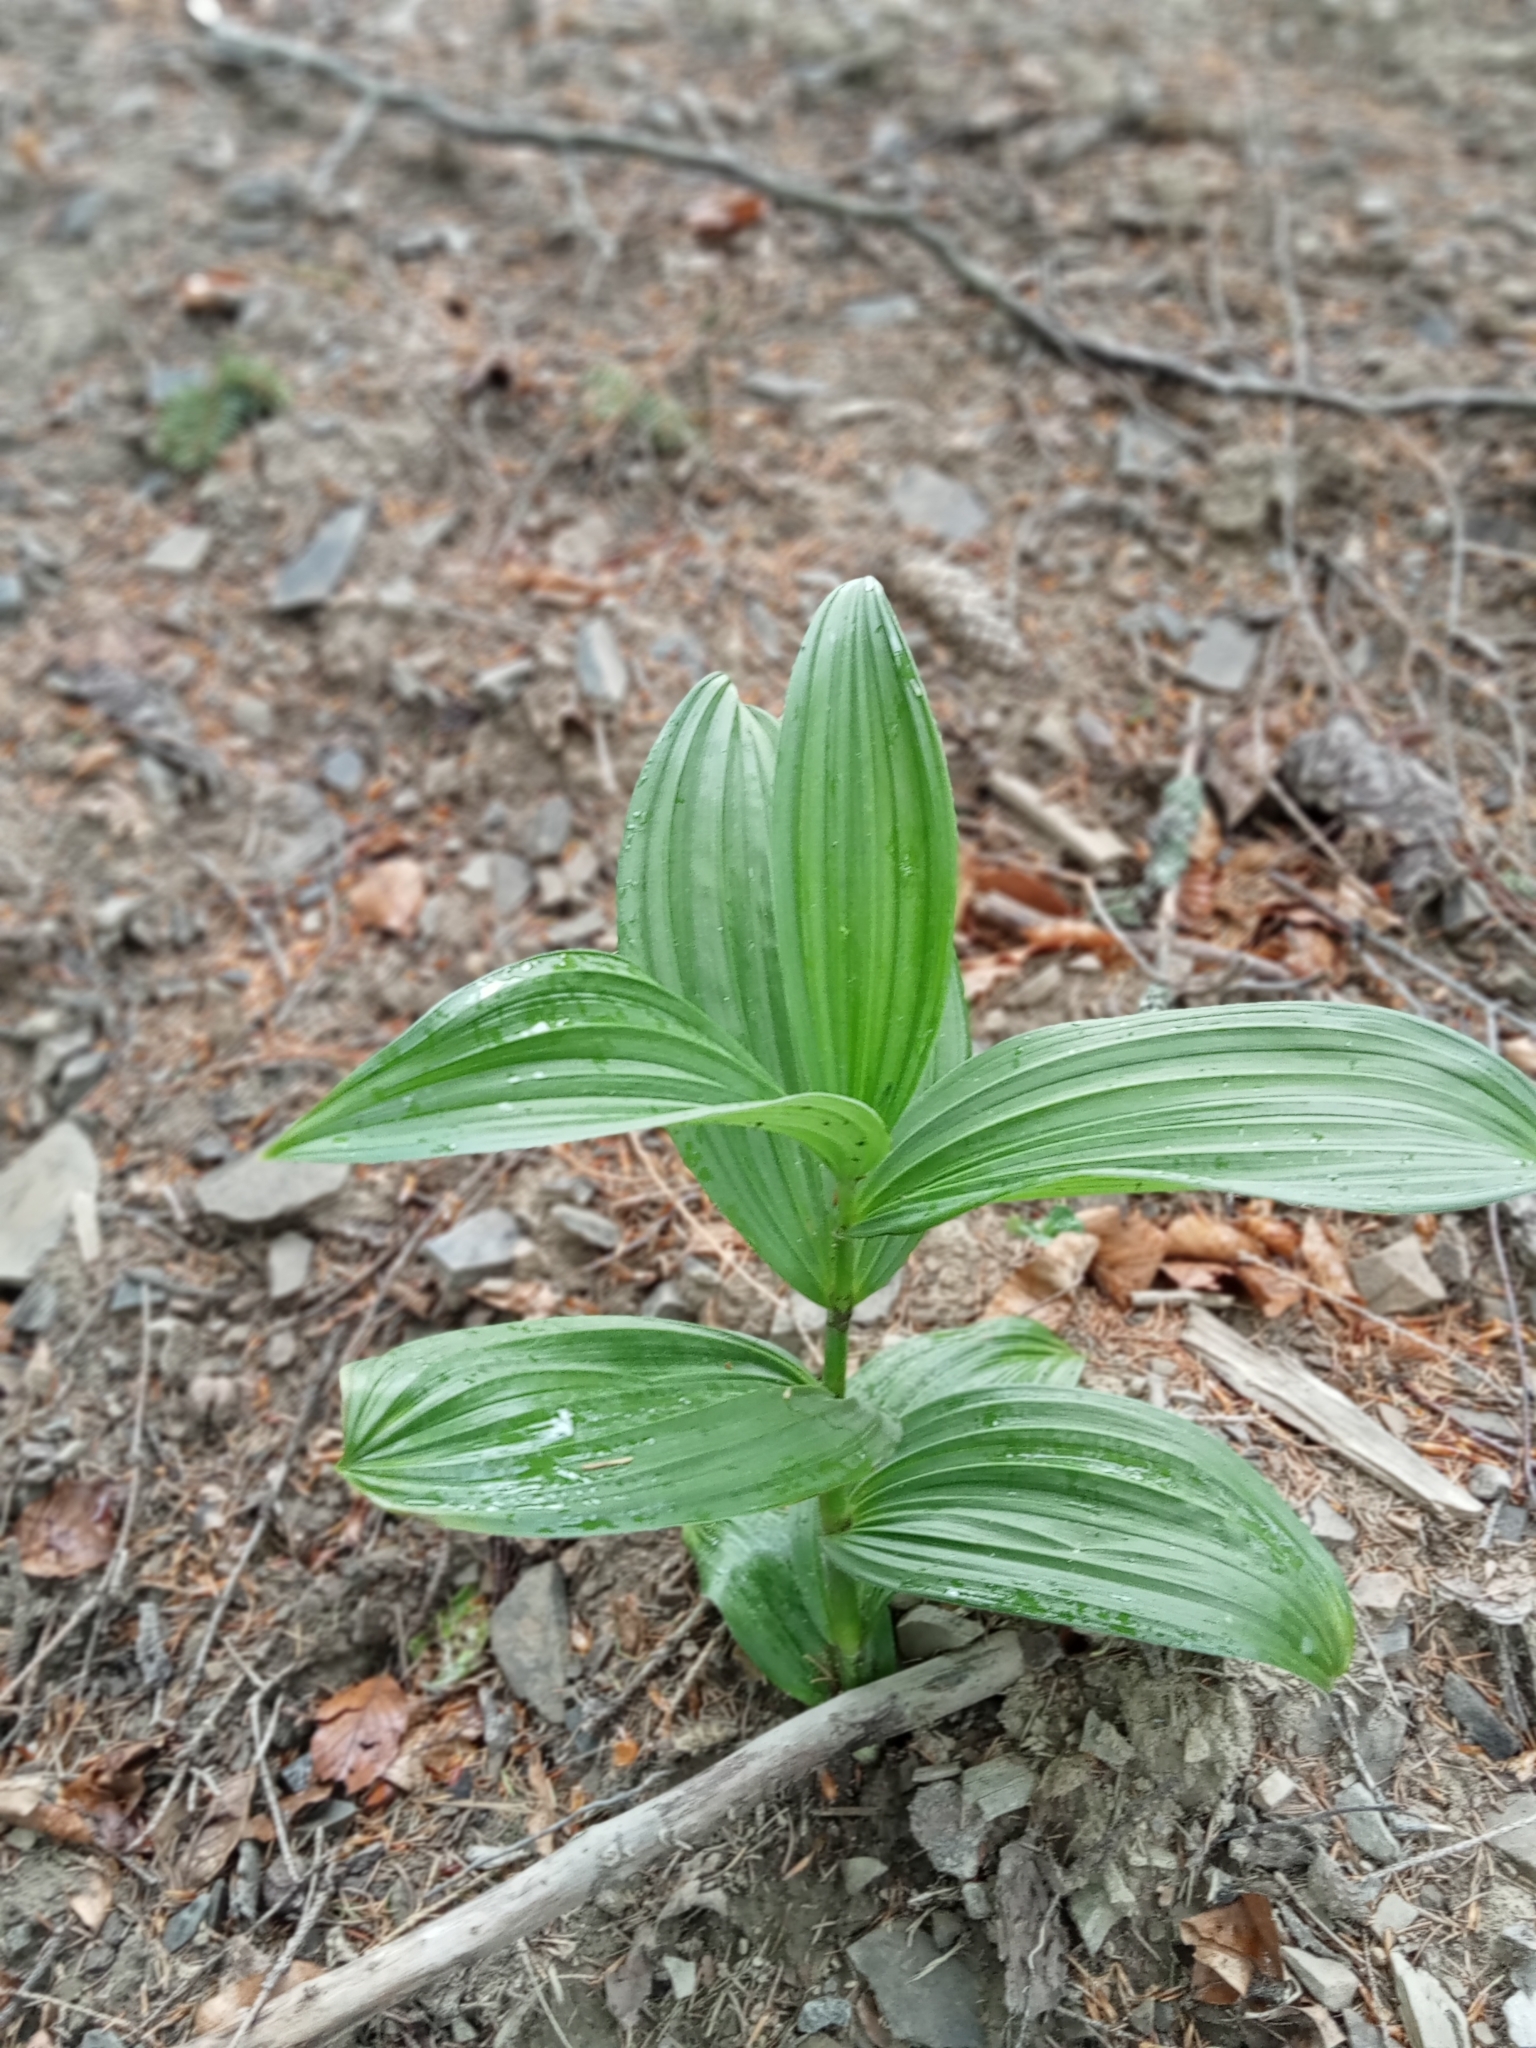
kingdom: Plantae
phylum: Tracheophyta
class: Liliopsida
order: Liliales
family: Melanthiaceae
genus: Veratrum
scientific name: Veratrum lobelianum
